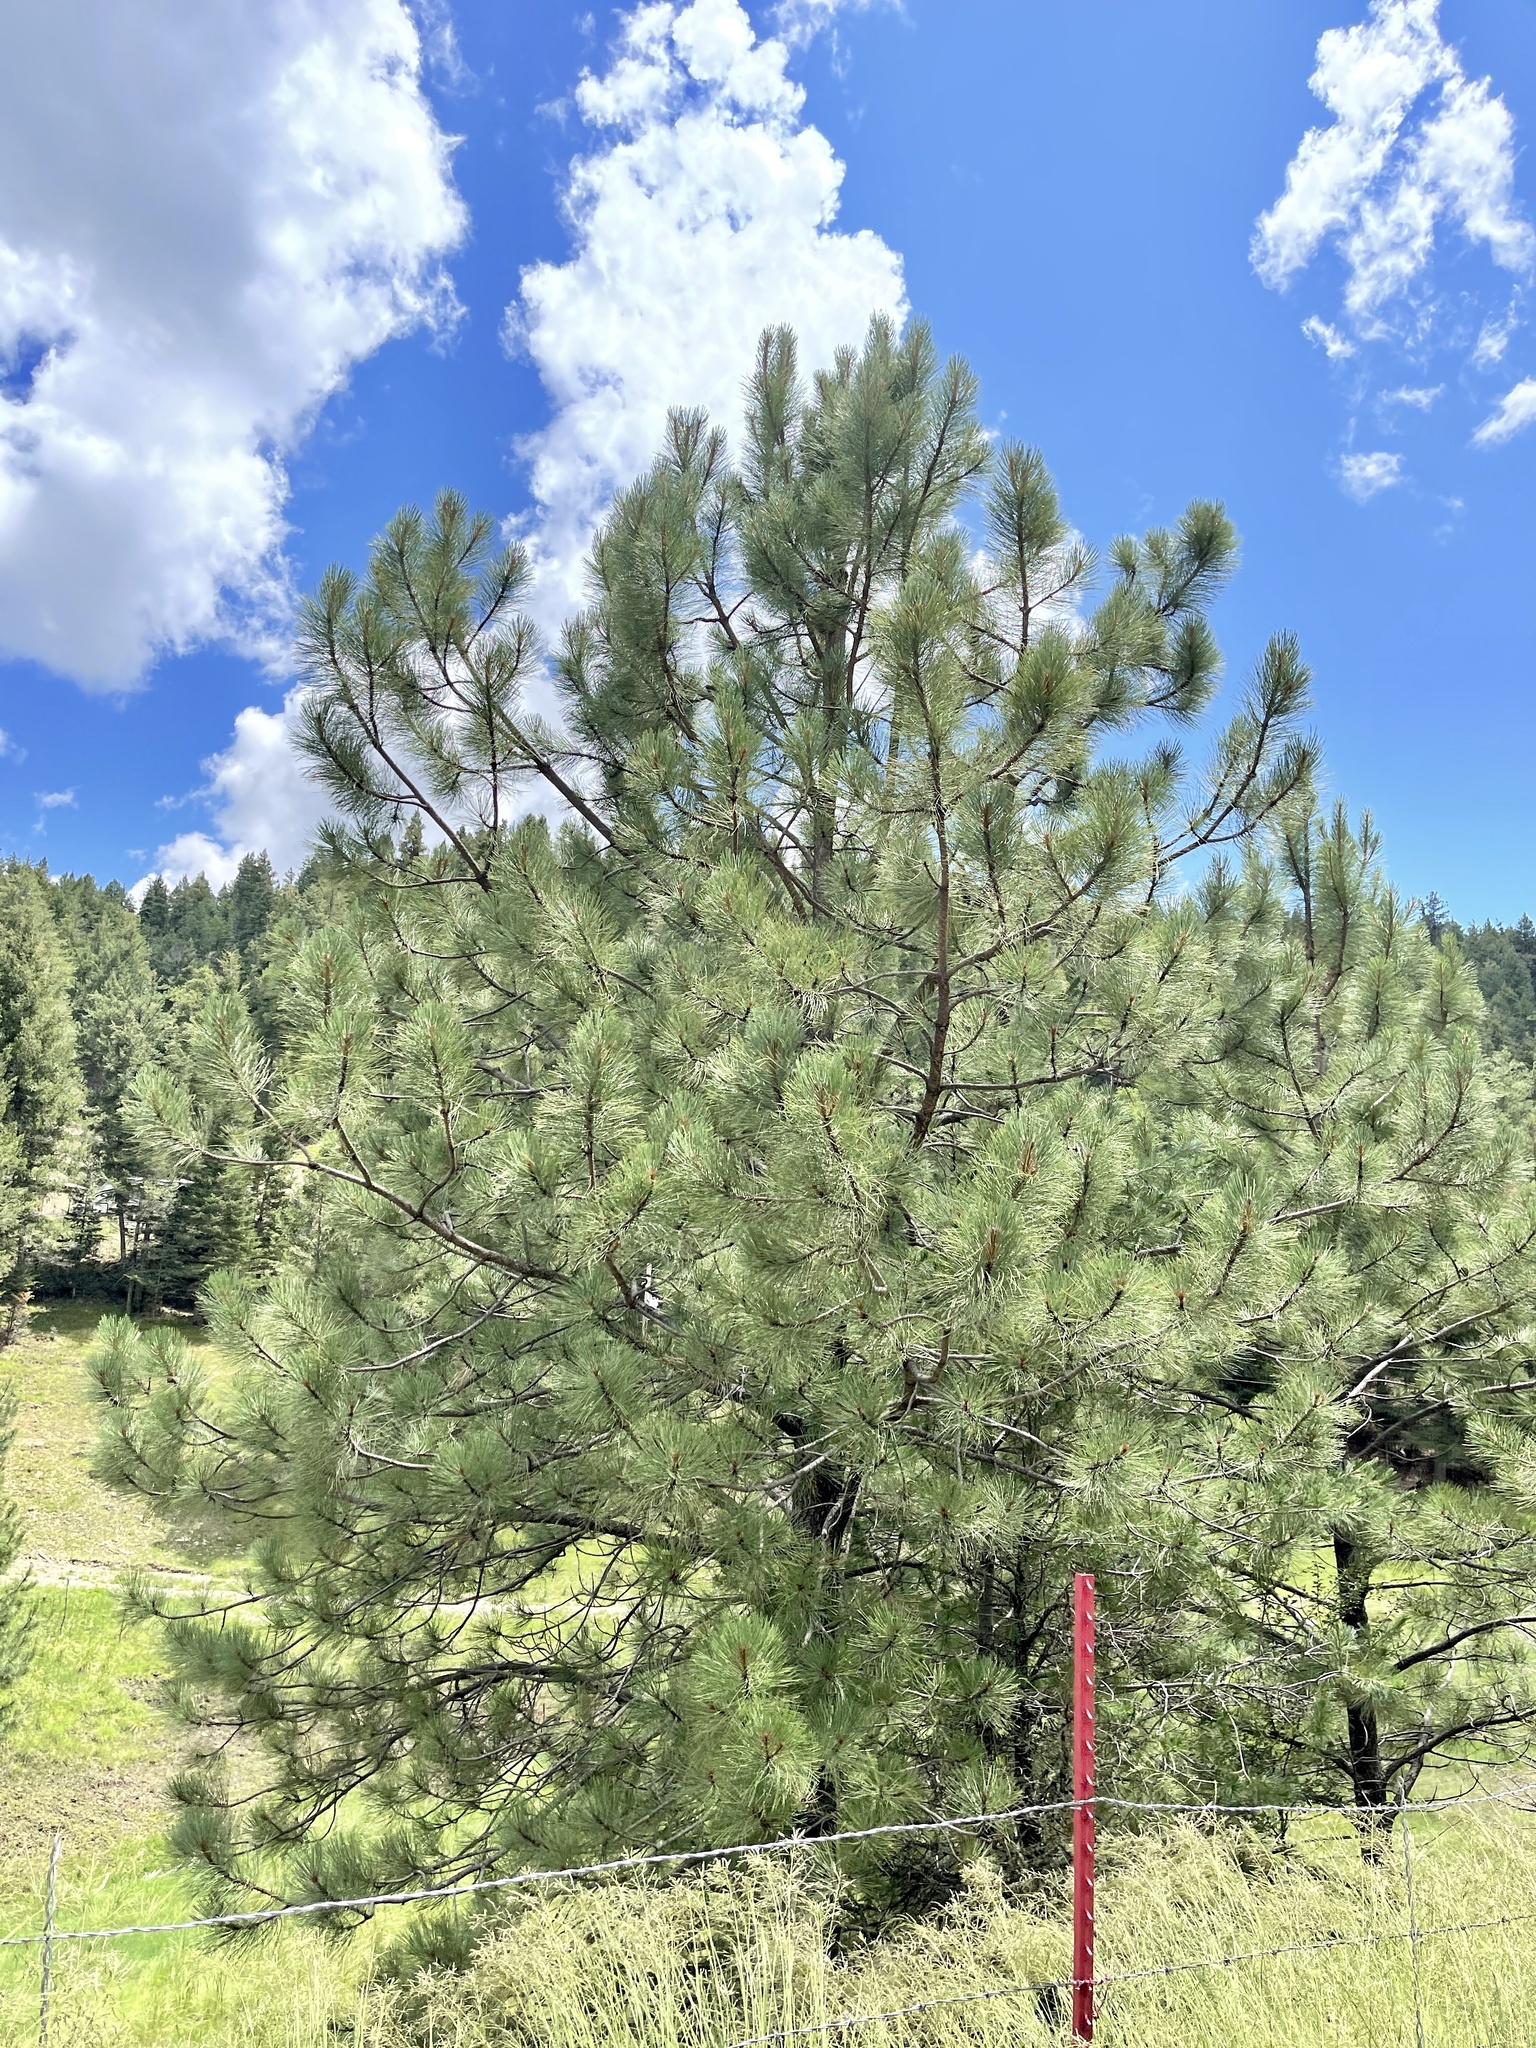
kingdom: Plantae
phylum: Tracheophyta
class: Pinopsida
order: Pinales
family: Pinaceae
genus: Pinus
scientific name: Pinus ponderosa
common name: Western yellow-pine
